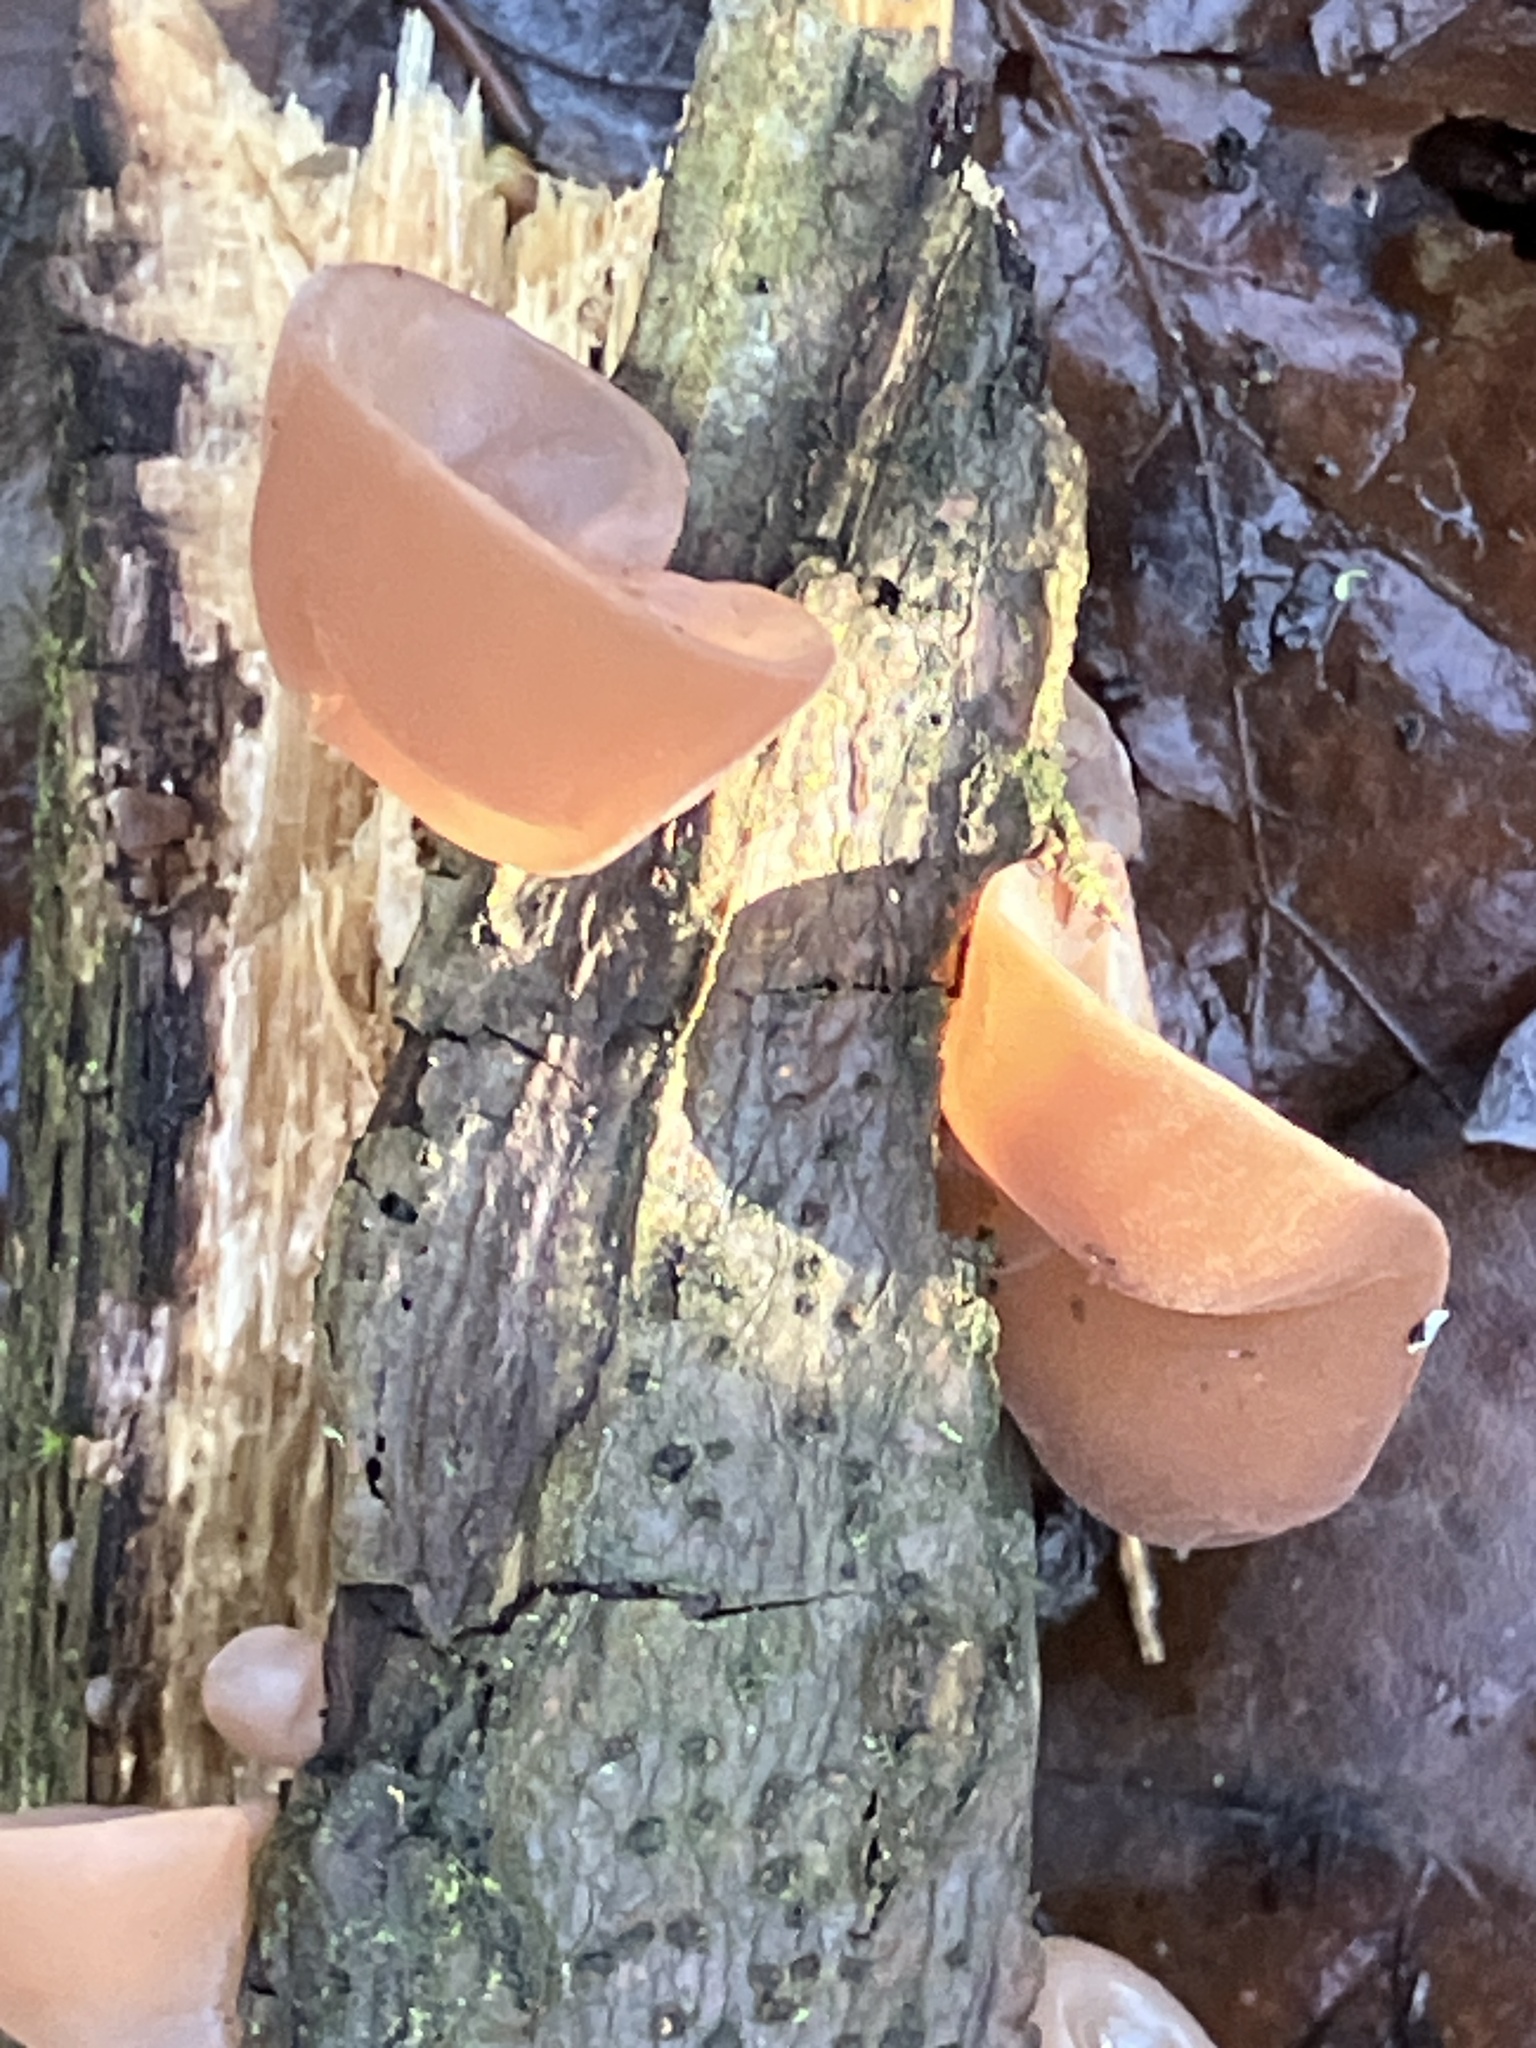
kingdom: Fungi
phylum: Basidiomycota
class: Agaricomycetes
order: Auriculariales
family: Auriculariaceae
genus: Auricularia
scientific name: Auricularia auricula-judae
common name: Jelly ear
